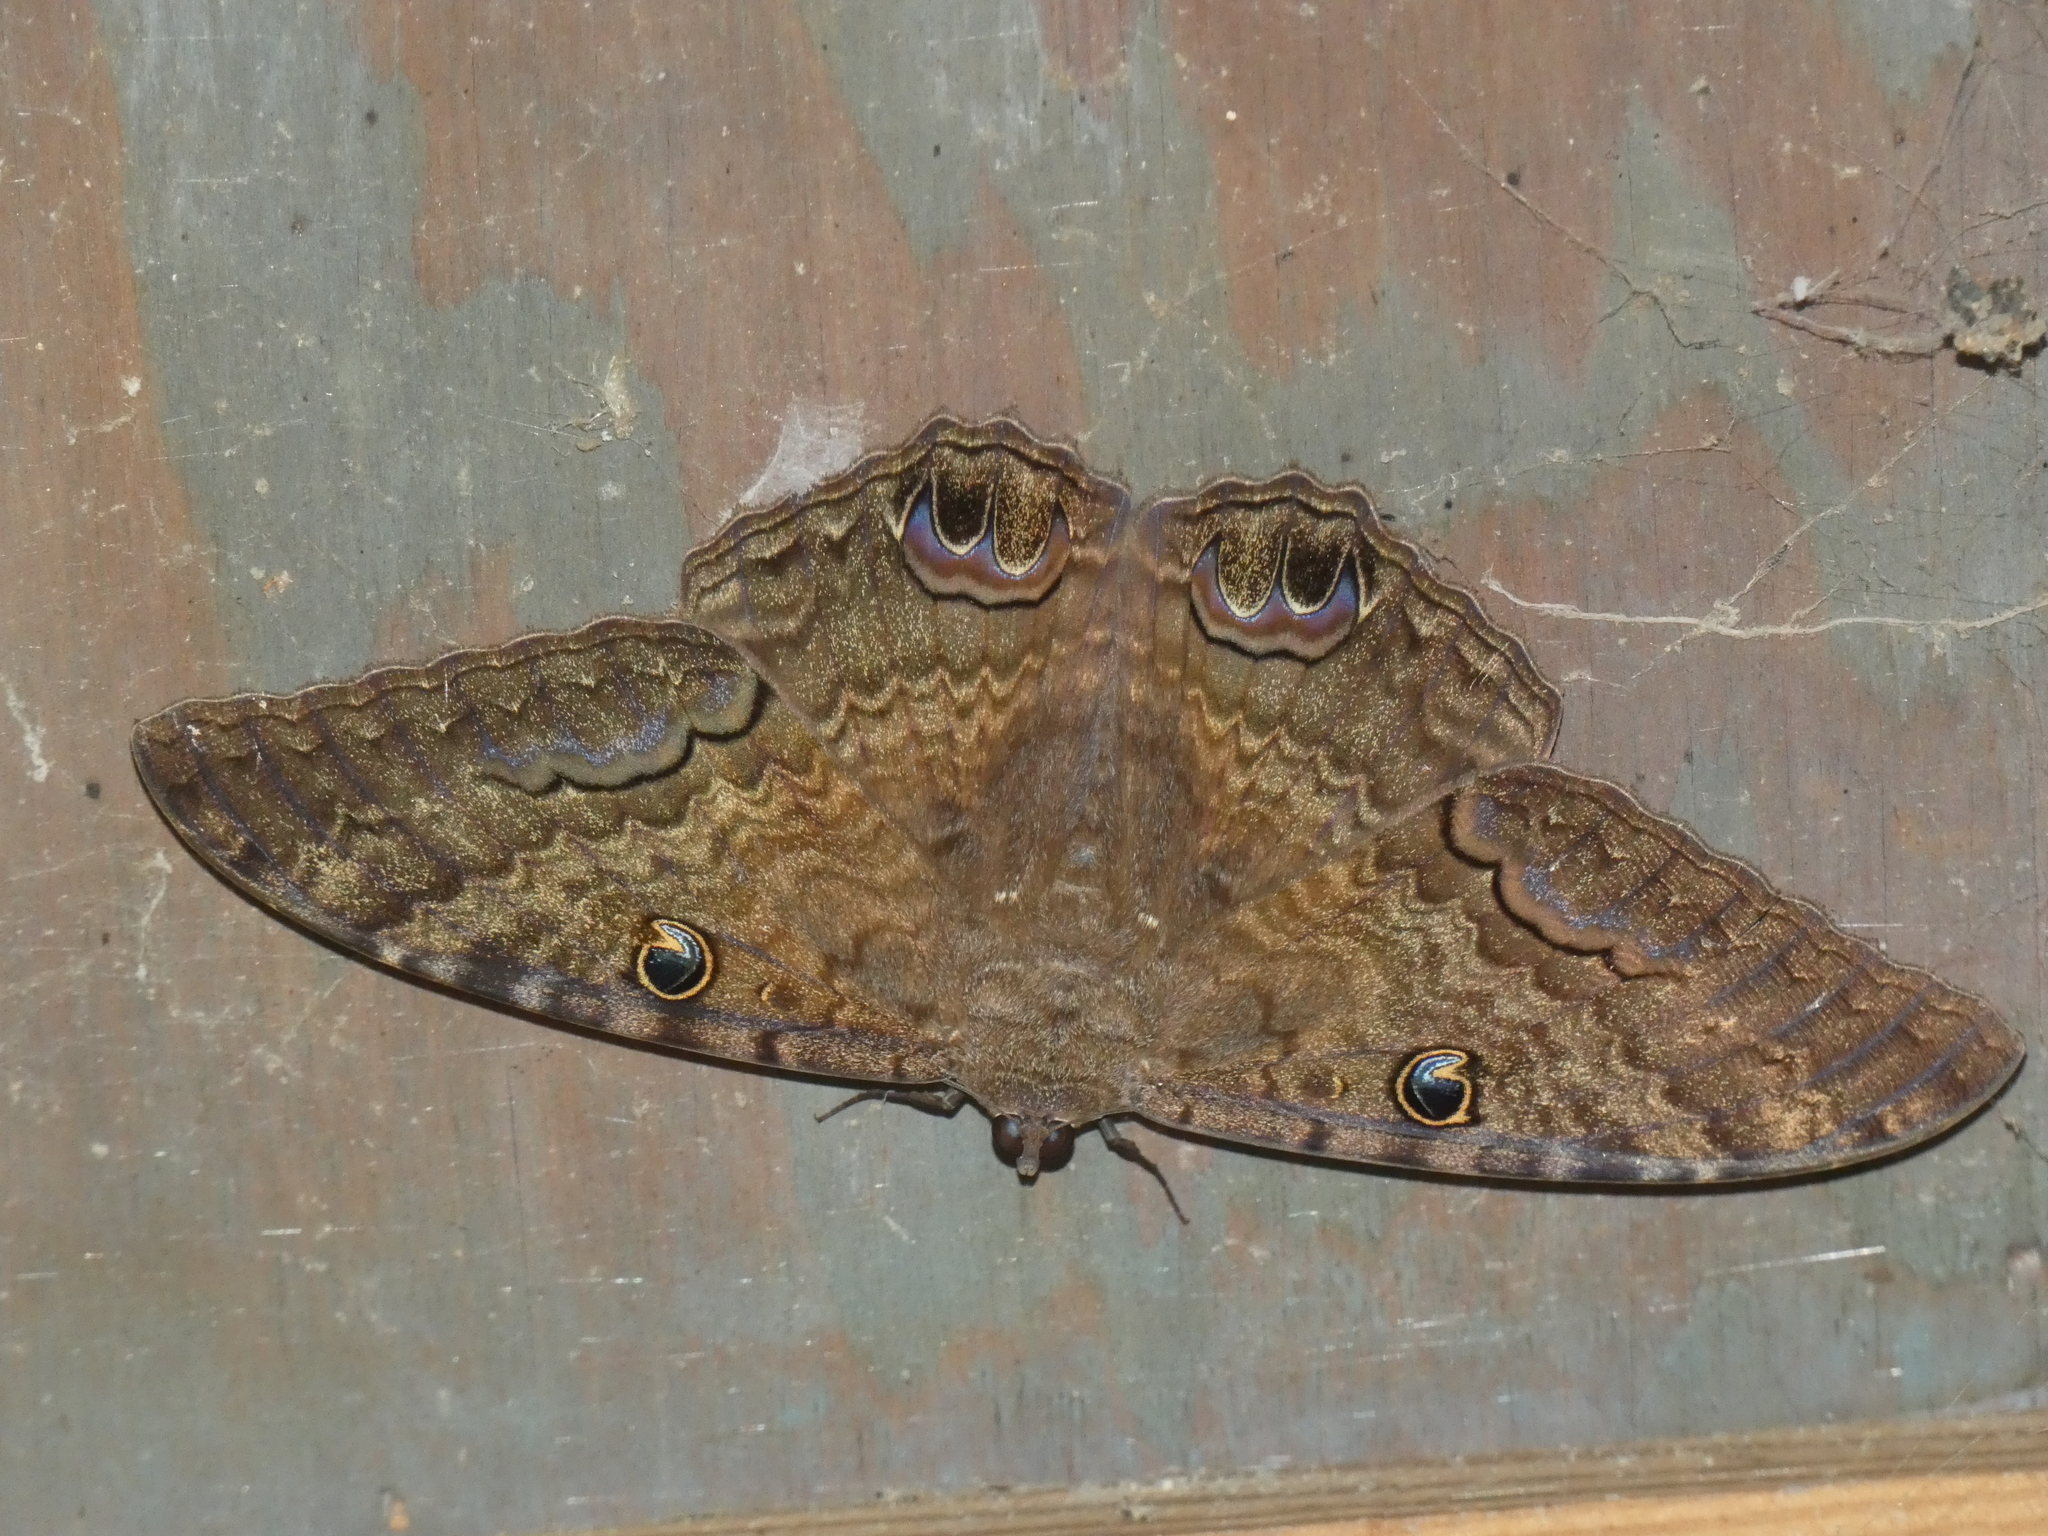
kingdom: Animalia
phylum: Arthropoda
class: Insecta
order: Lepidoptera
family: Erebidae
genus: Ascalapha
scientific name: Ascalapha odorata
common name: Black witch
